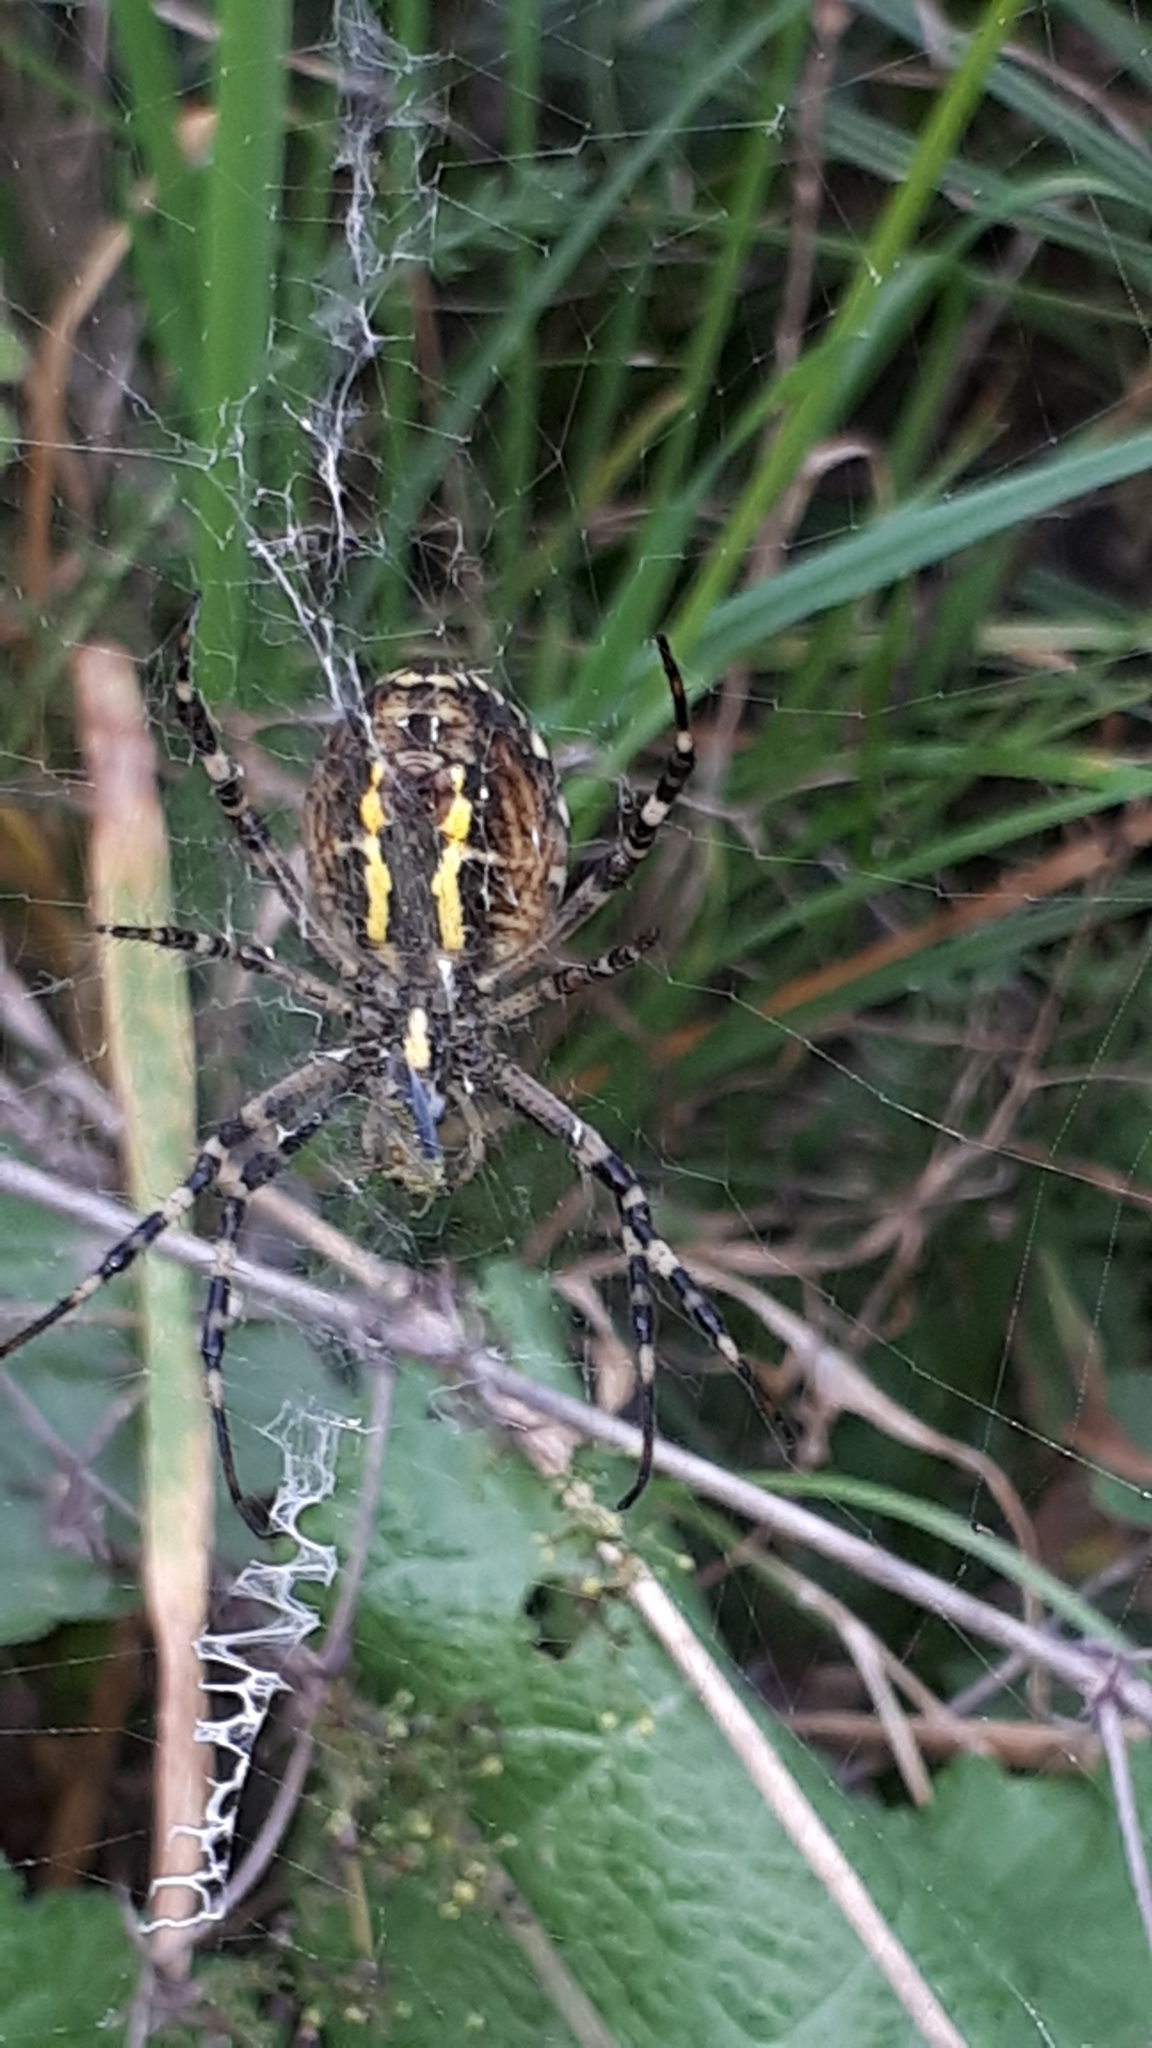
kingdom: Animalia
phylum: Arthropoda
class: Arachnida
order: Araneae
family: Araneidae
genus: Argiope
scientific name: Argiope bruennichi
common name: Wasp spider
